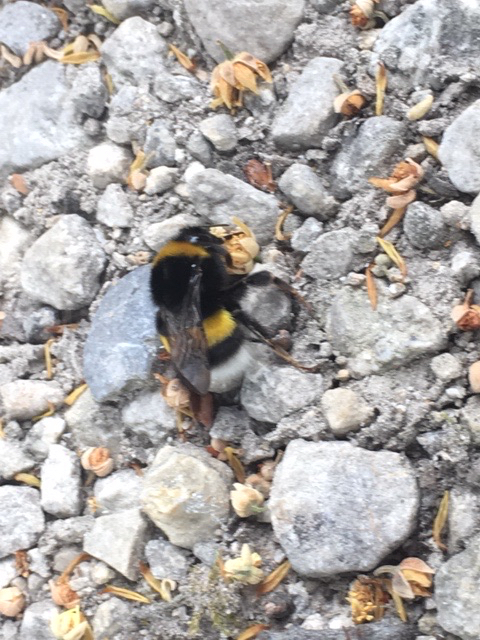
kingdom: Animalia
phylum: Arthropoda
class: Insecta
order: Hymenoptera
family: Apidae
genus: Bombus
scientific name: Bombus terrestris
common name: Buff-tailed bumblebee
